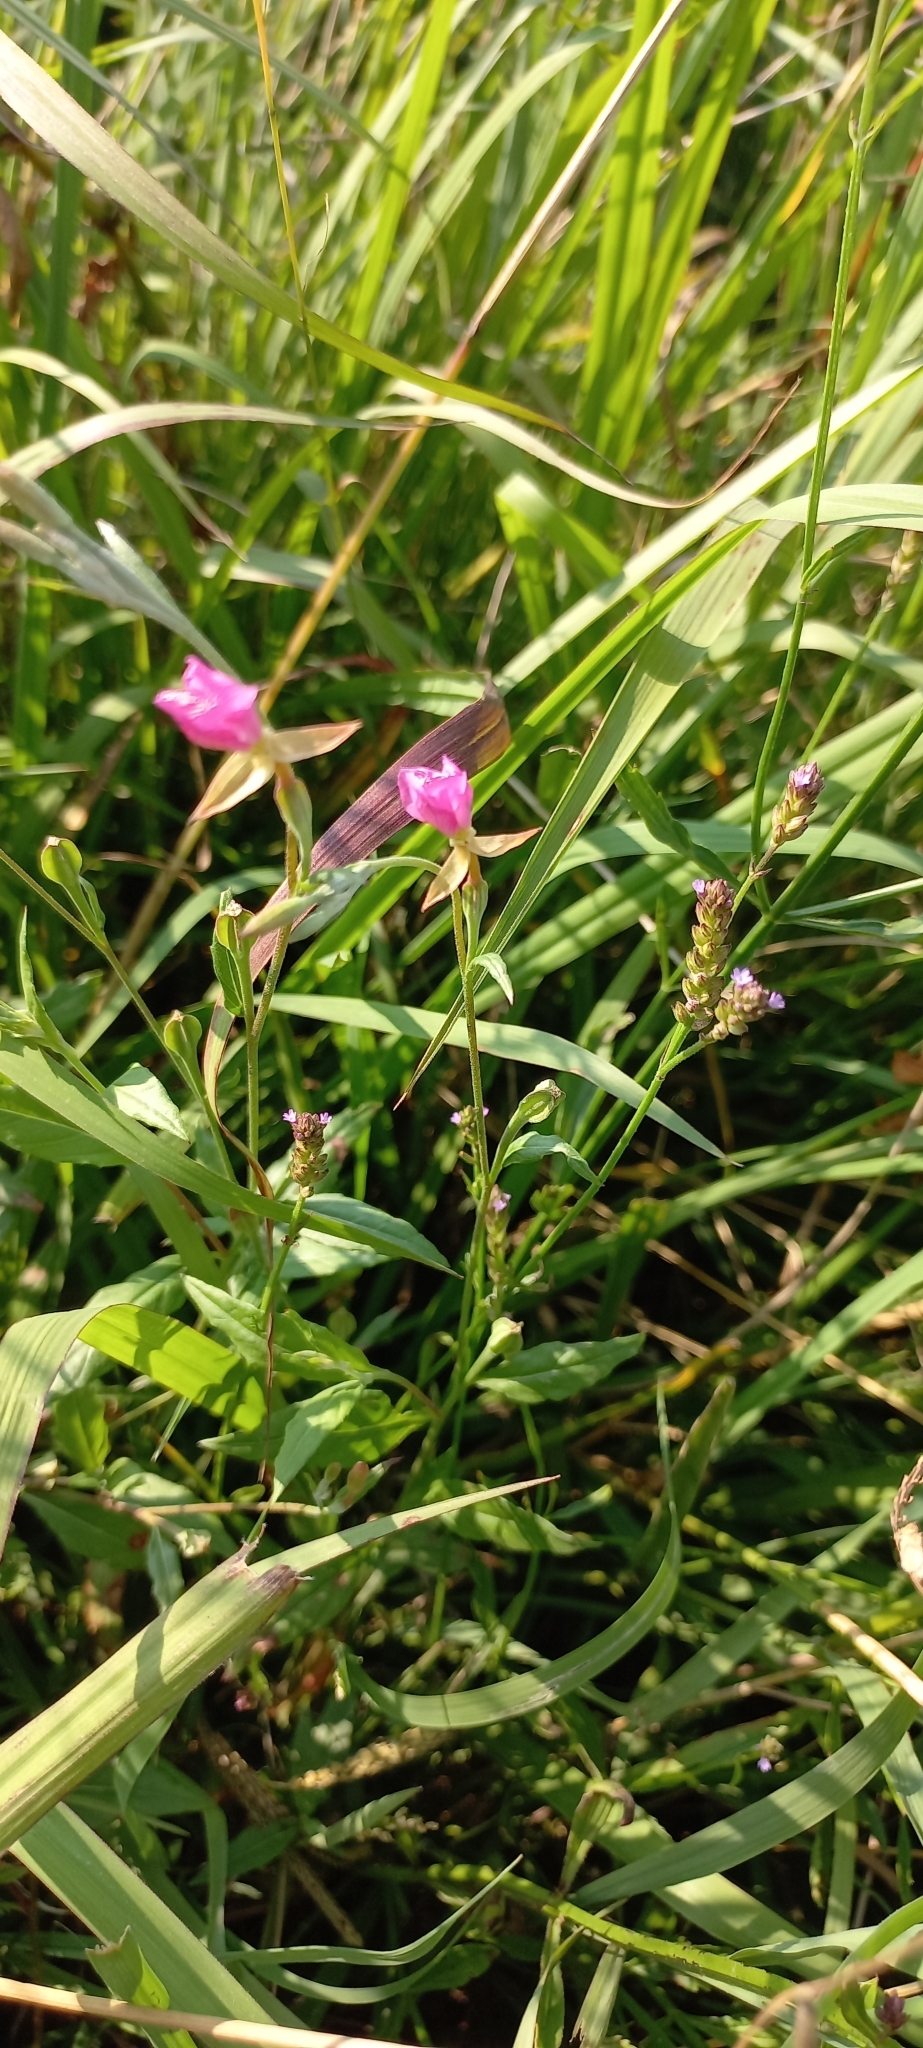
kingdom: Plantae
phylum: Tracheophyta
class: Magnoliopsida
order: Myrtales
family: Onagraceae
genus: Oenothera
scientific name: Oenothera rosea
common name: Rosy evening-primrose
